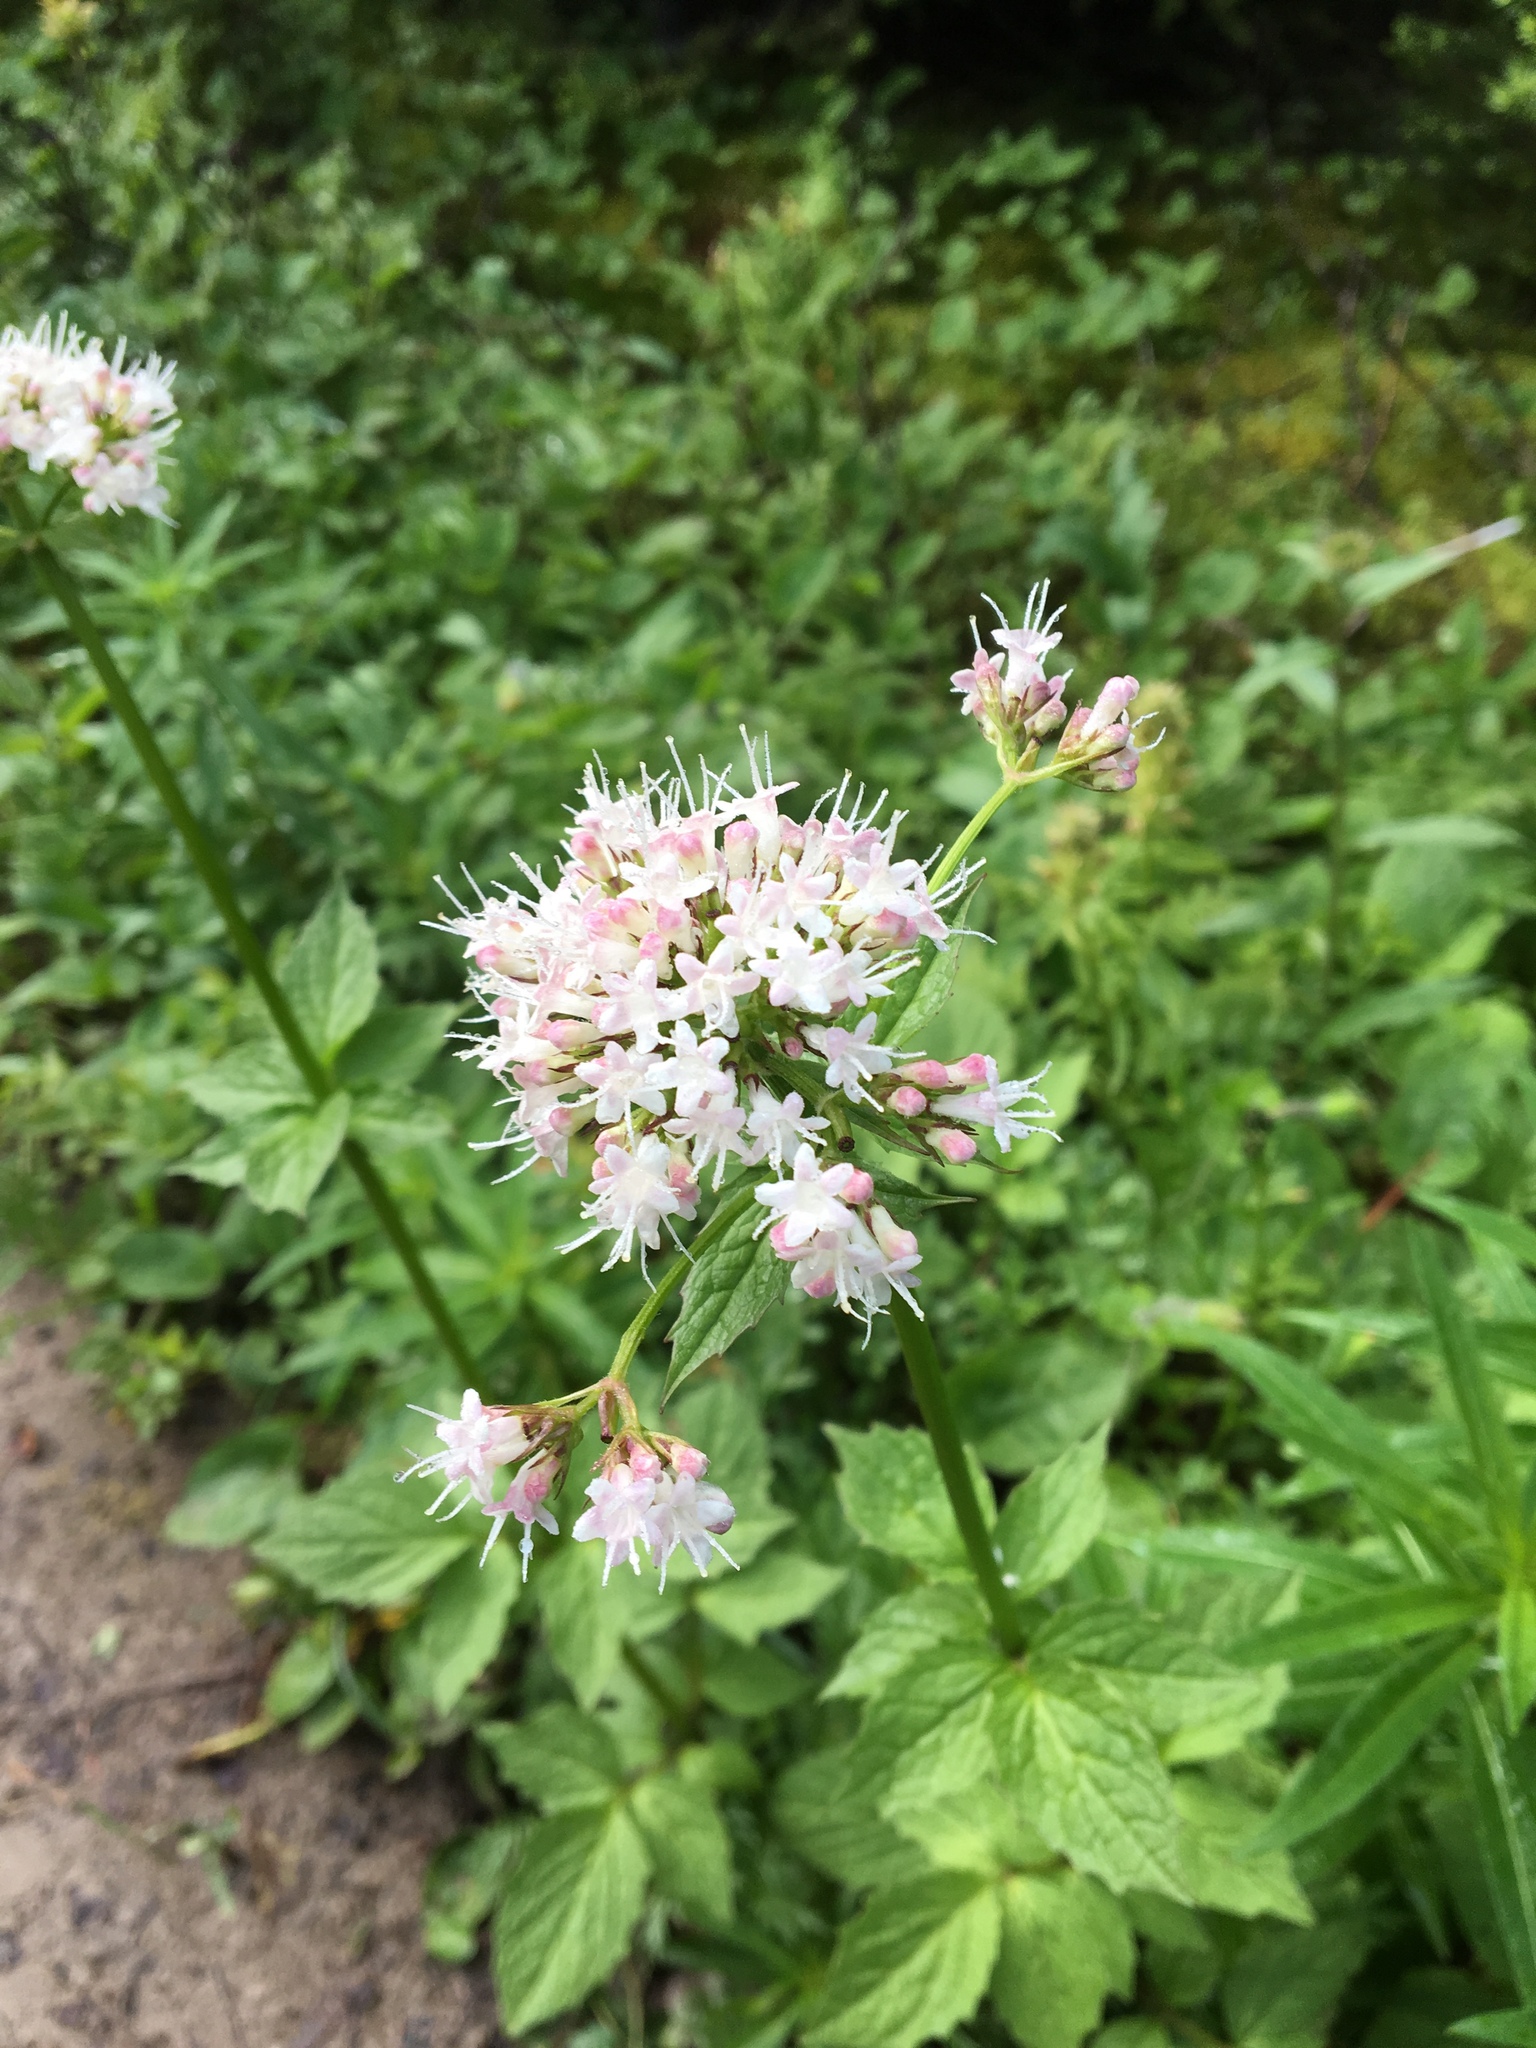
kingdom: Plantae
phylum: Tracheophyta
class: Magnoliopsida
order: Dipsacales
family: Caprifoliaceae
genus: Valeriana
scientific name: Valeriana sitchensis
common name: Pacific valerian
